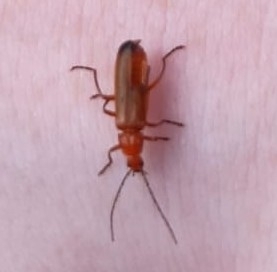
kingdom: Animalia
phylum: Arthropoda
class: Insecta
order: Coleoptera
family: Cantharidae
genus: Rhagonycha
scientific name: Rhagonycha fulva
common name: Common red soldier beetle
